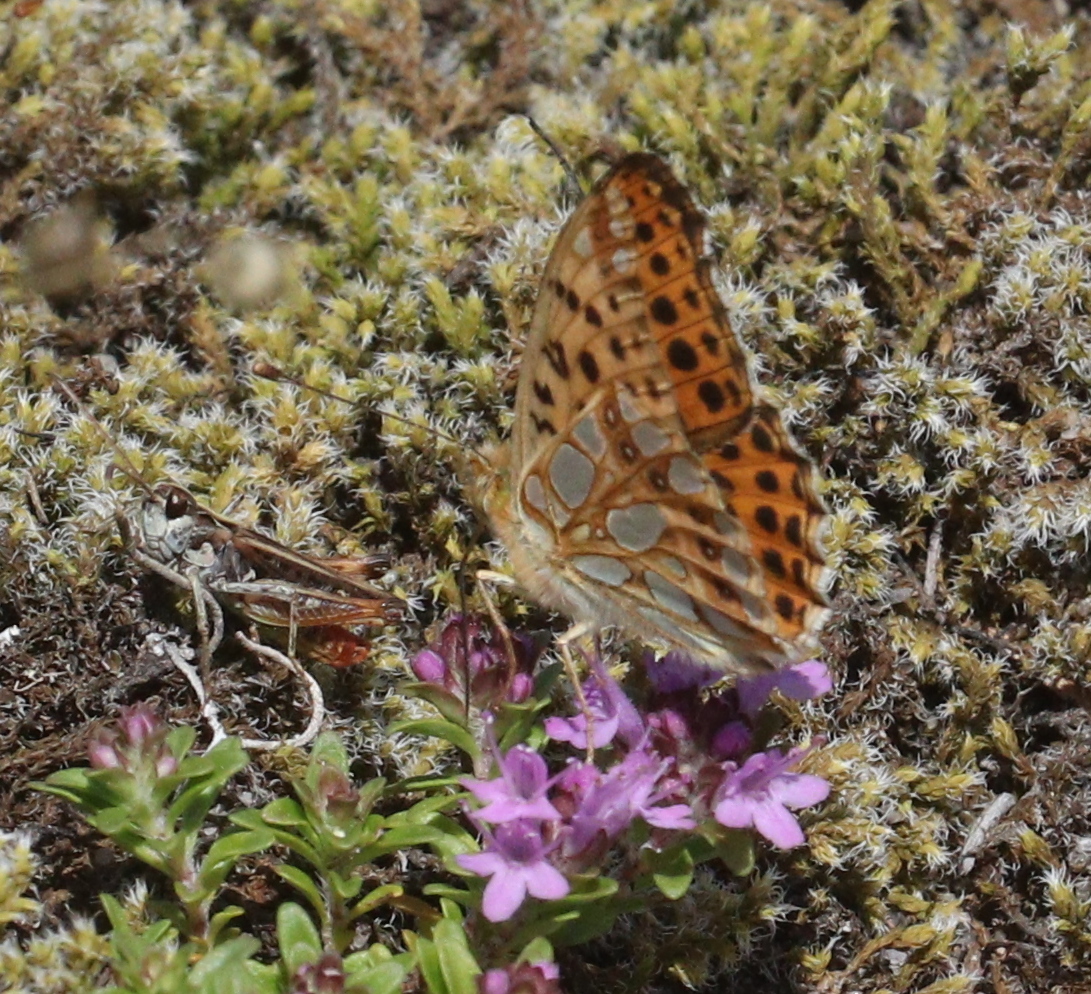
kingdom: Animalia
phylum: Arthropoda
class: Insecta
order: Lepidoptera
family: Nymphalidae
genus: Issoria
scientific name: Issoria lathonia
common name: Queen of spain fritillary
